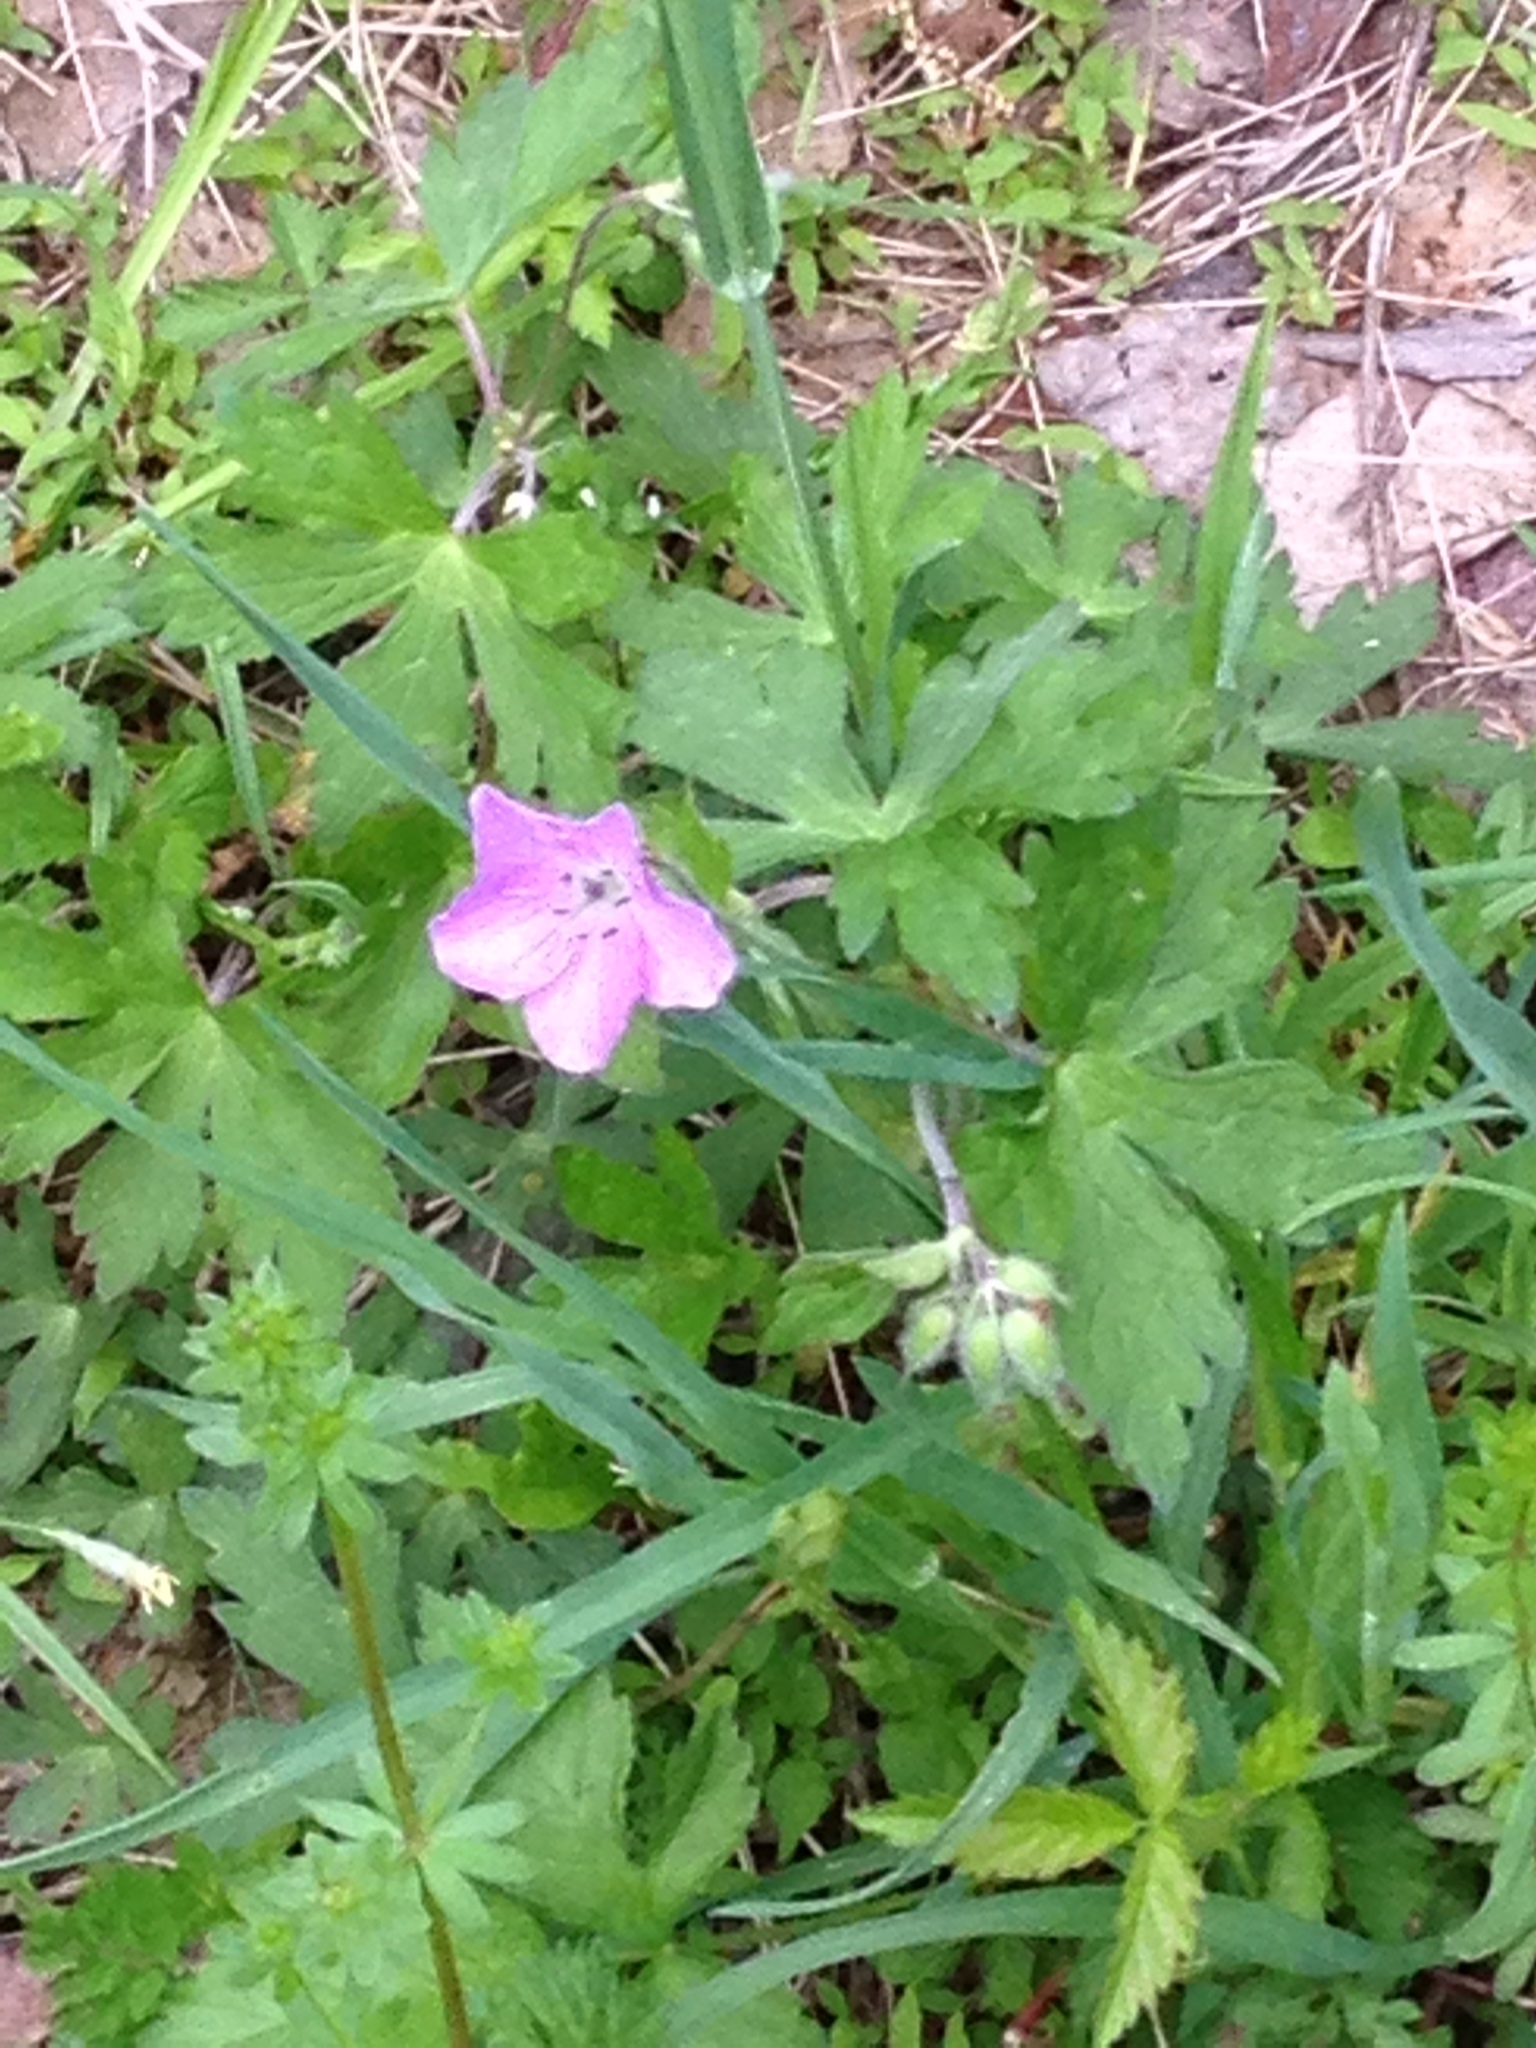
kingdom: Plantae
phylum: Tracheophyta
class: Magnoliopsida
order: Geraniales
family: Geraniaceae
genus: Geranium
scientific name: Geranium maculatum
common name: Spotted geranium
